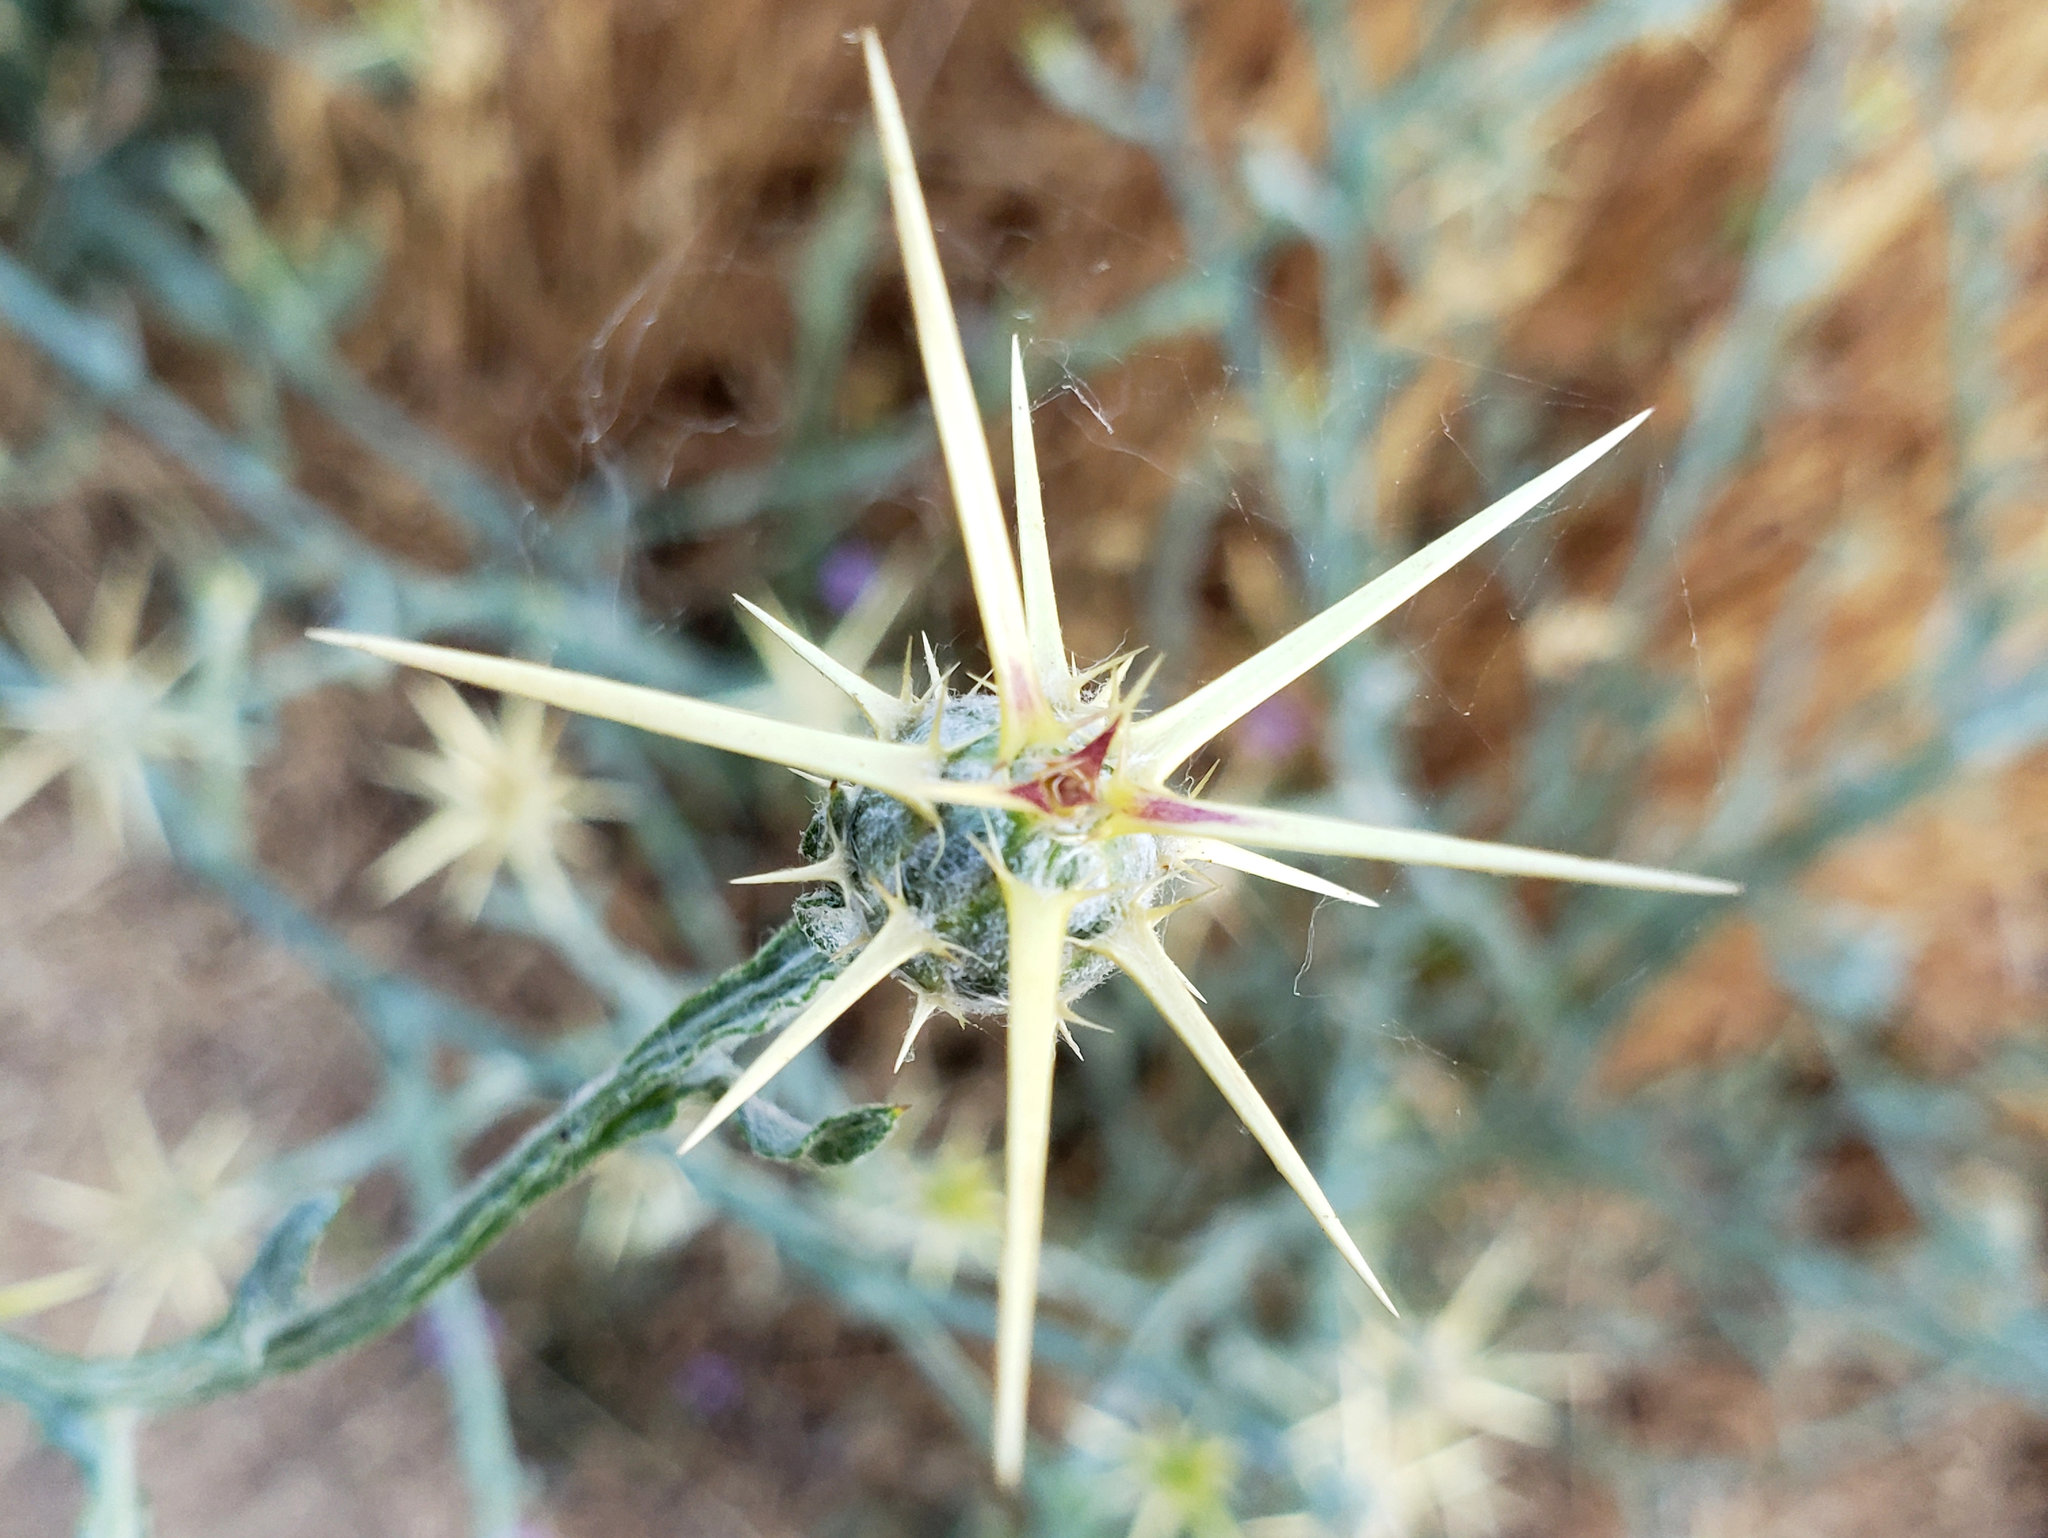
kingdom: Plantae
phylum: Tracheophyta
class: Magnoliopsida
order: Asterales
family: Asteraceae
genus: Centaurea
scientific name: Centaurea solstitialis
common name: Yellow star-thistle
